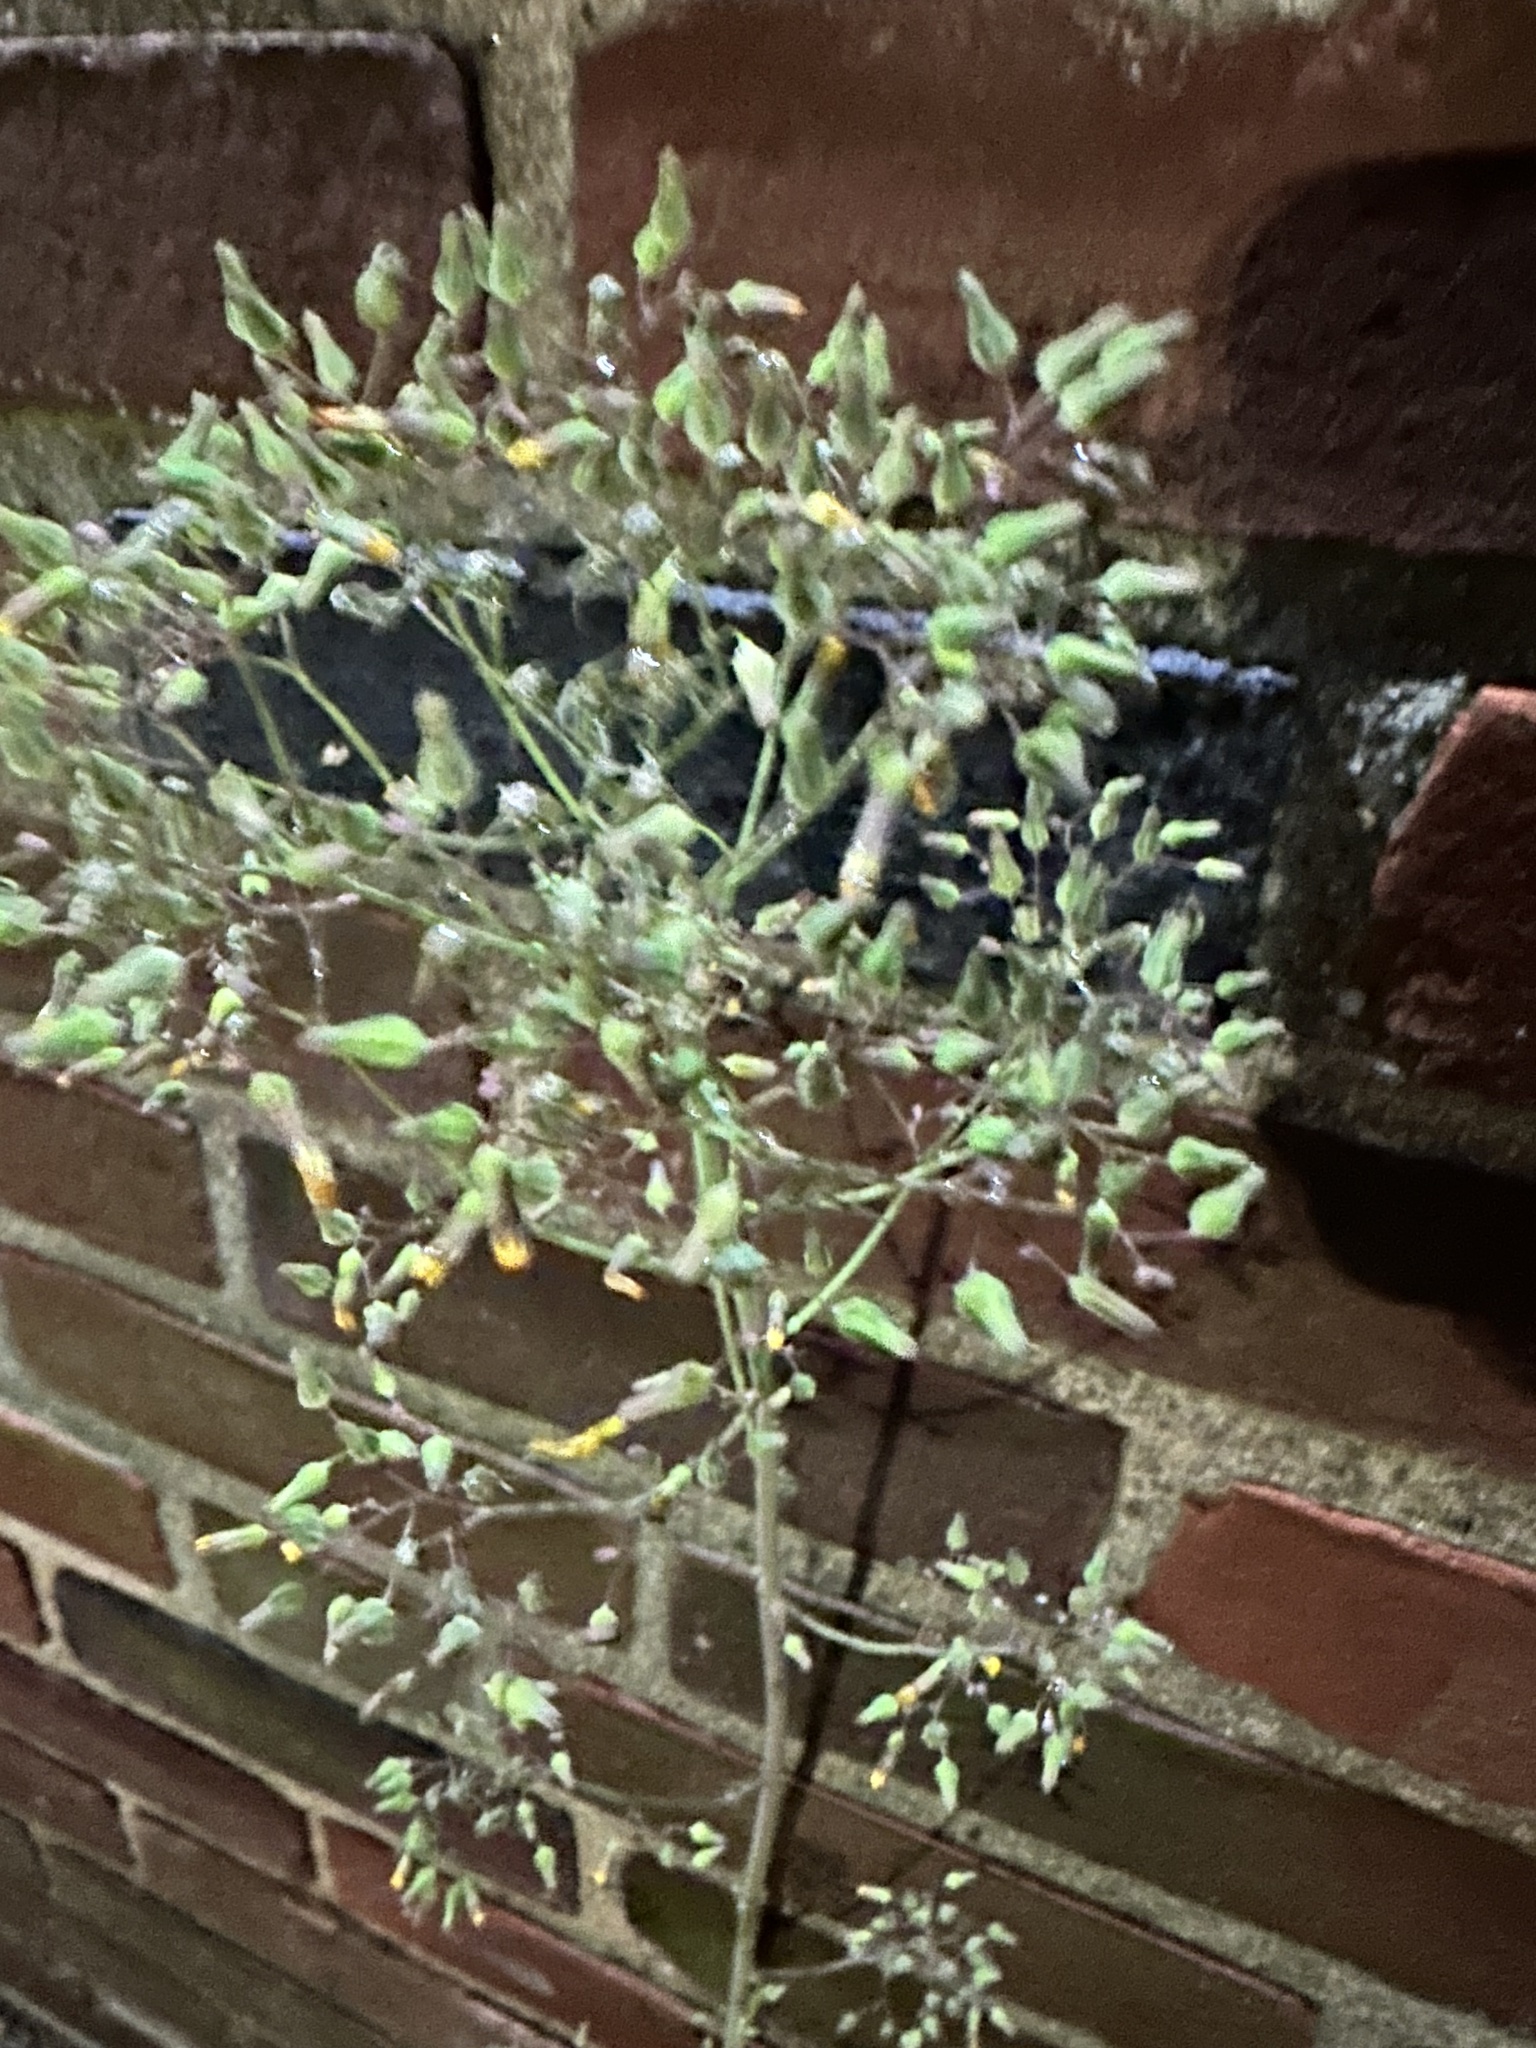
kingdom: Plantae
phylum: Tracheophyta
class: Magnoliopsida
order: Asterales
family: Asteraceae
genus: Youngia
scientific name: Youngia japonica
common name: Oriental false hawksbeard
